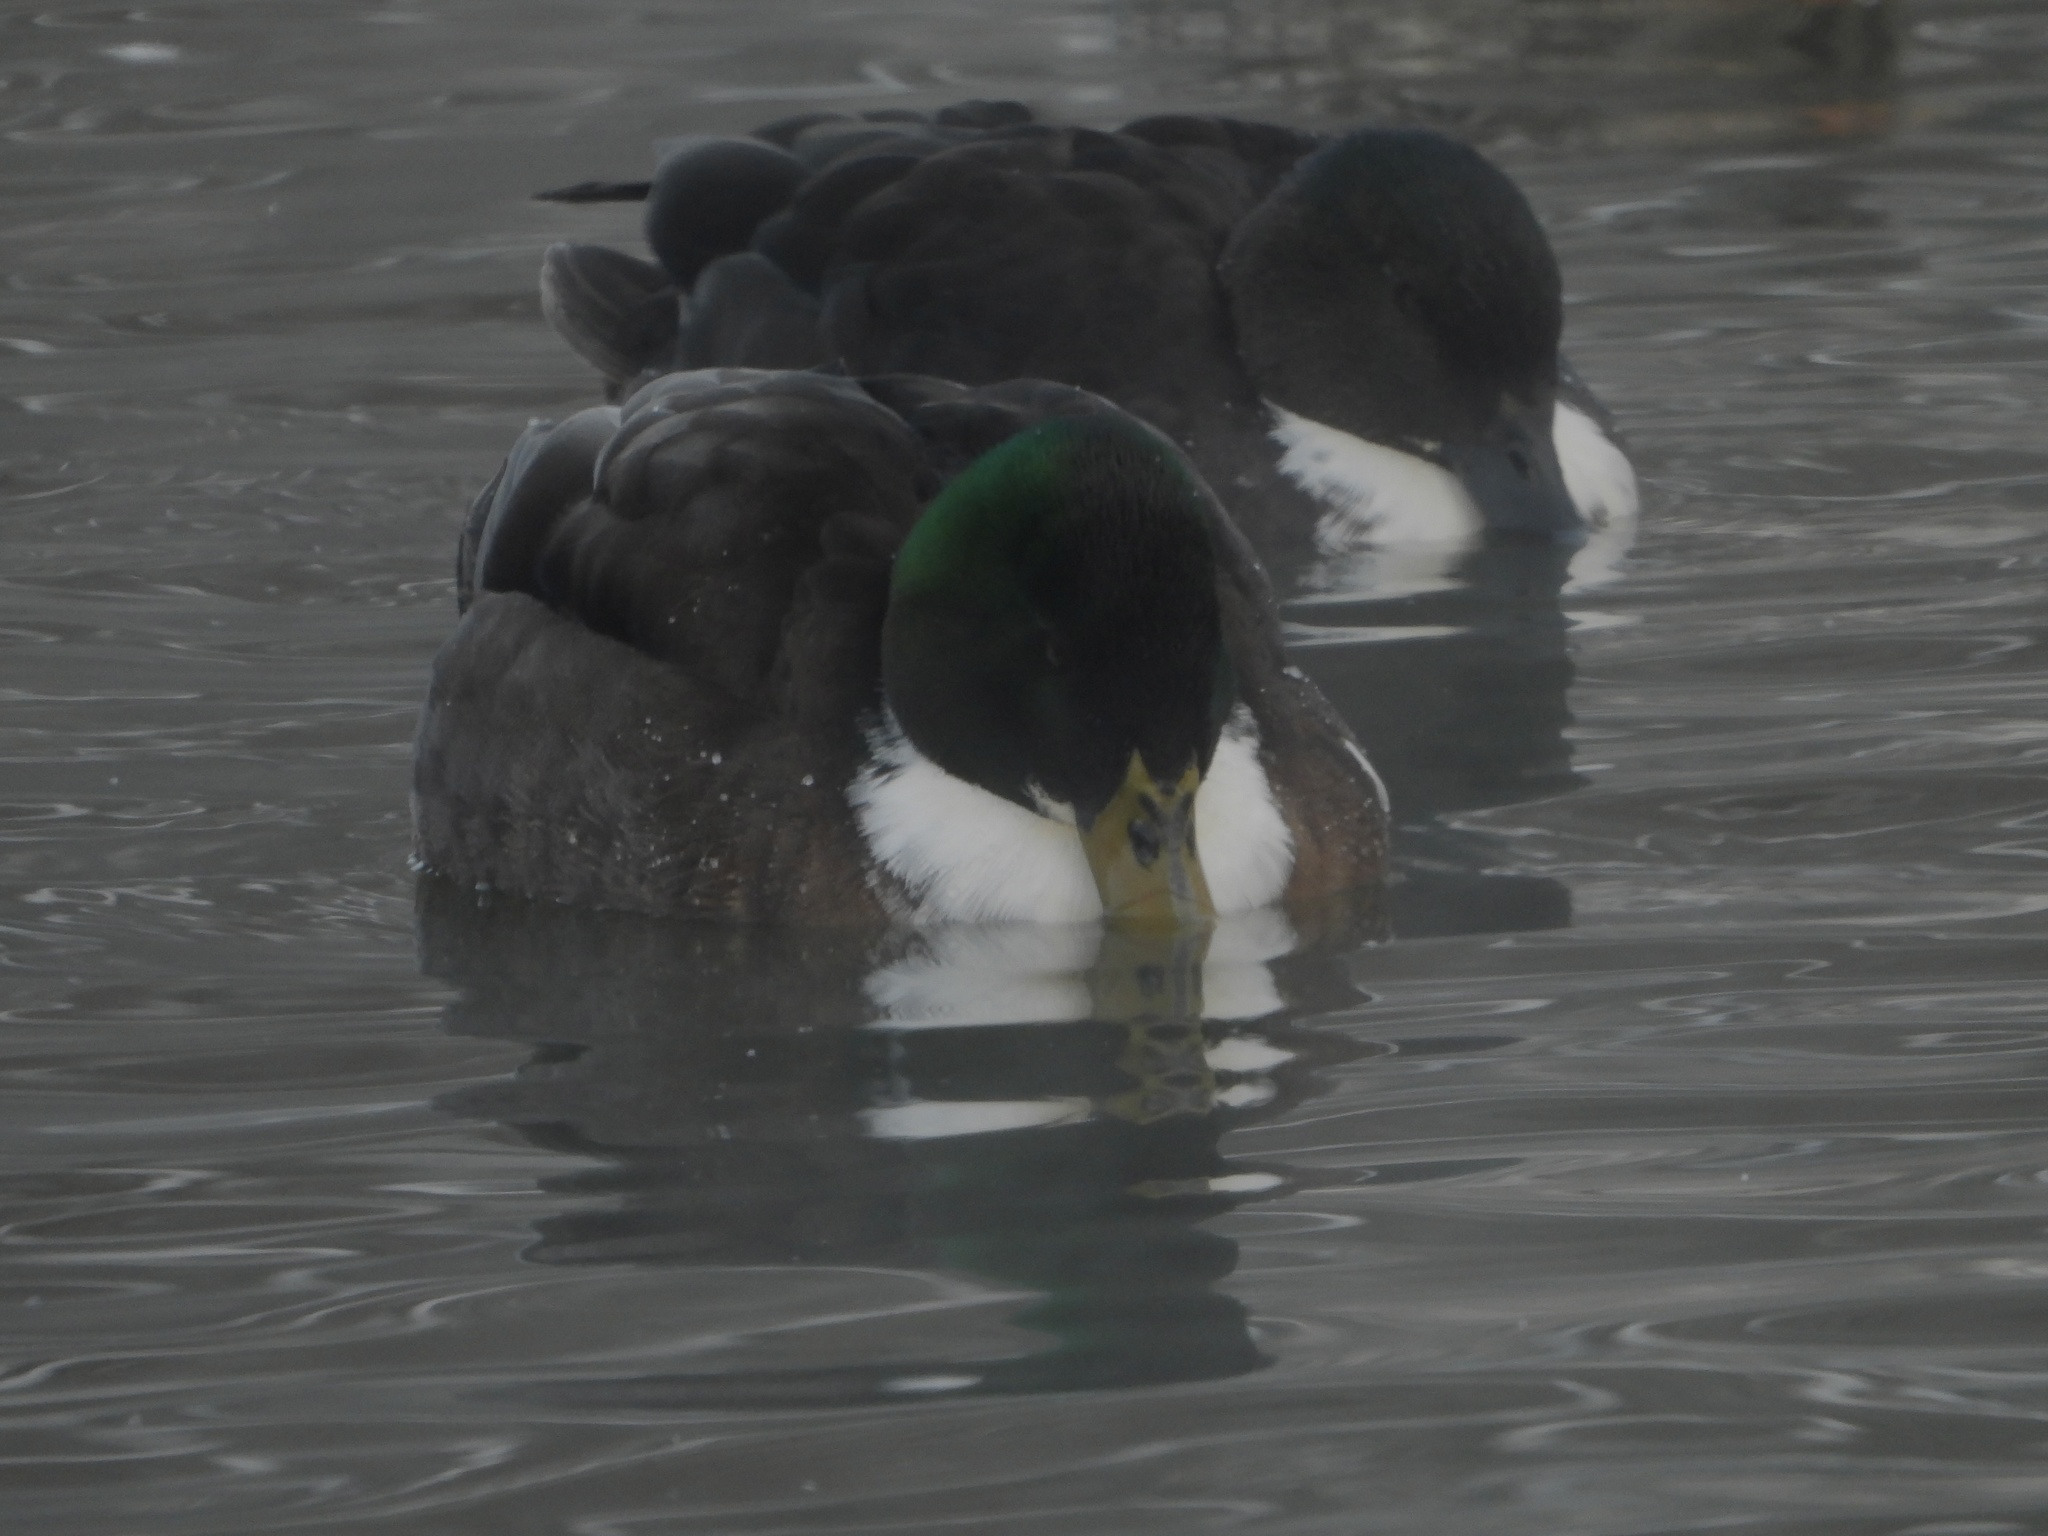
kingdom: Animalia
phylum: Chordata
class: Aves
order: Anseriformes
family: Anatidae
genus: Anas
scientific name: Anas platyrhynchos
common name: Mallard
